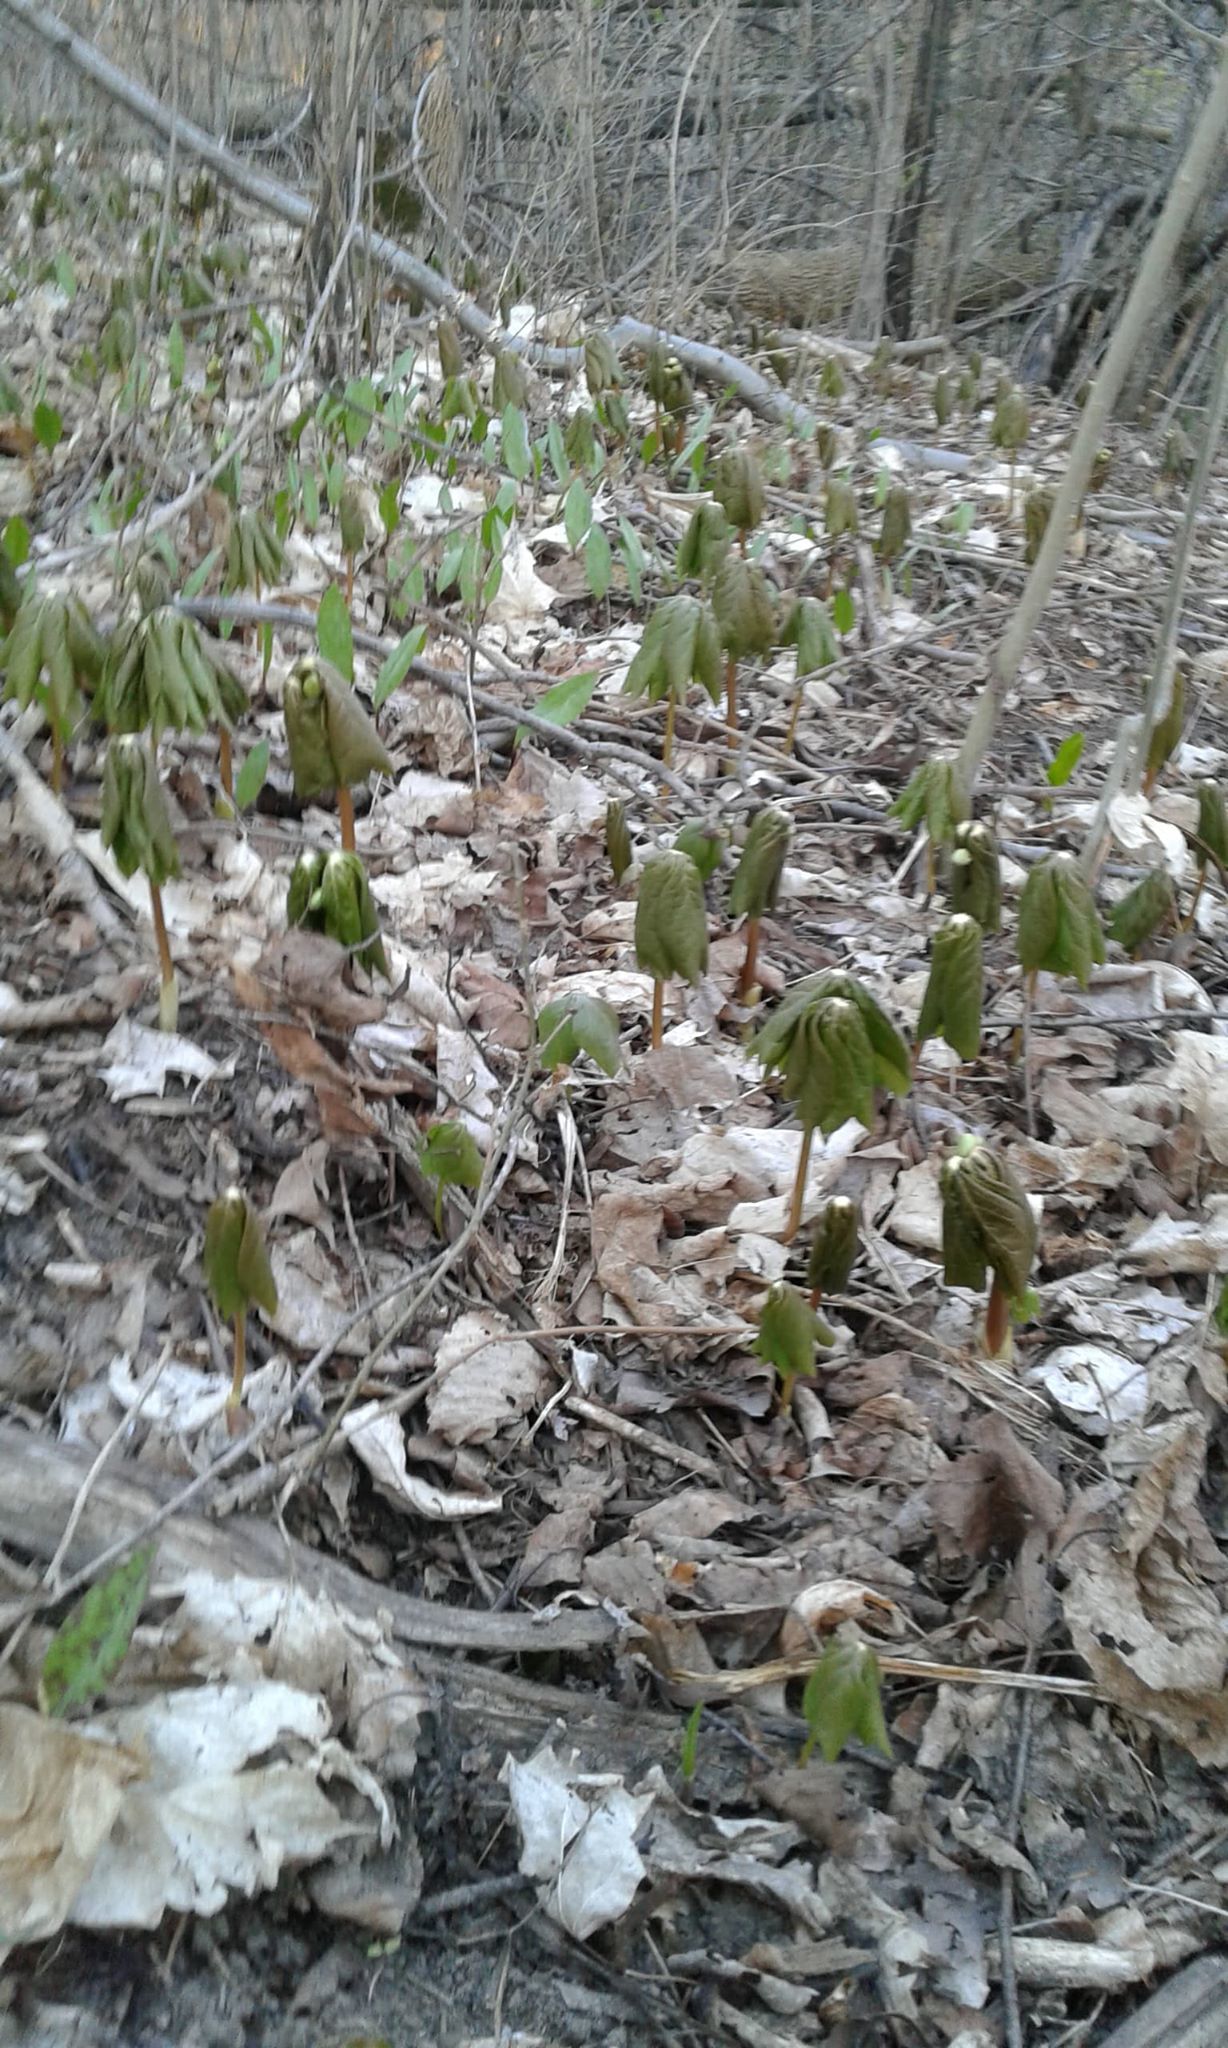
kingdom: Plantae
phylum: Tracheophyta
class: Magnoliopsida
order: Ranunculales
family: Berberidaceae
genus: Podophyllum
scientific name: Podophyllum peltatum
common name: Wild mandrake
